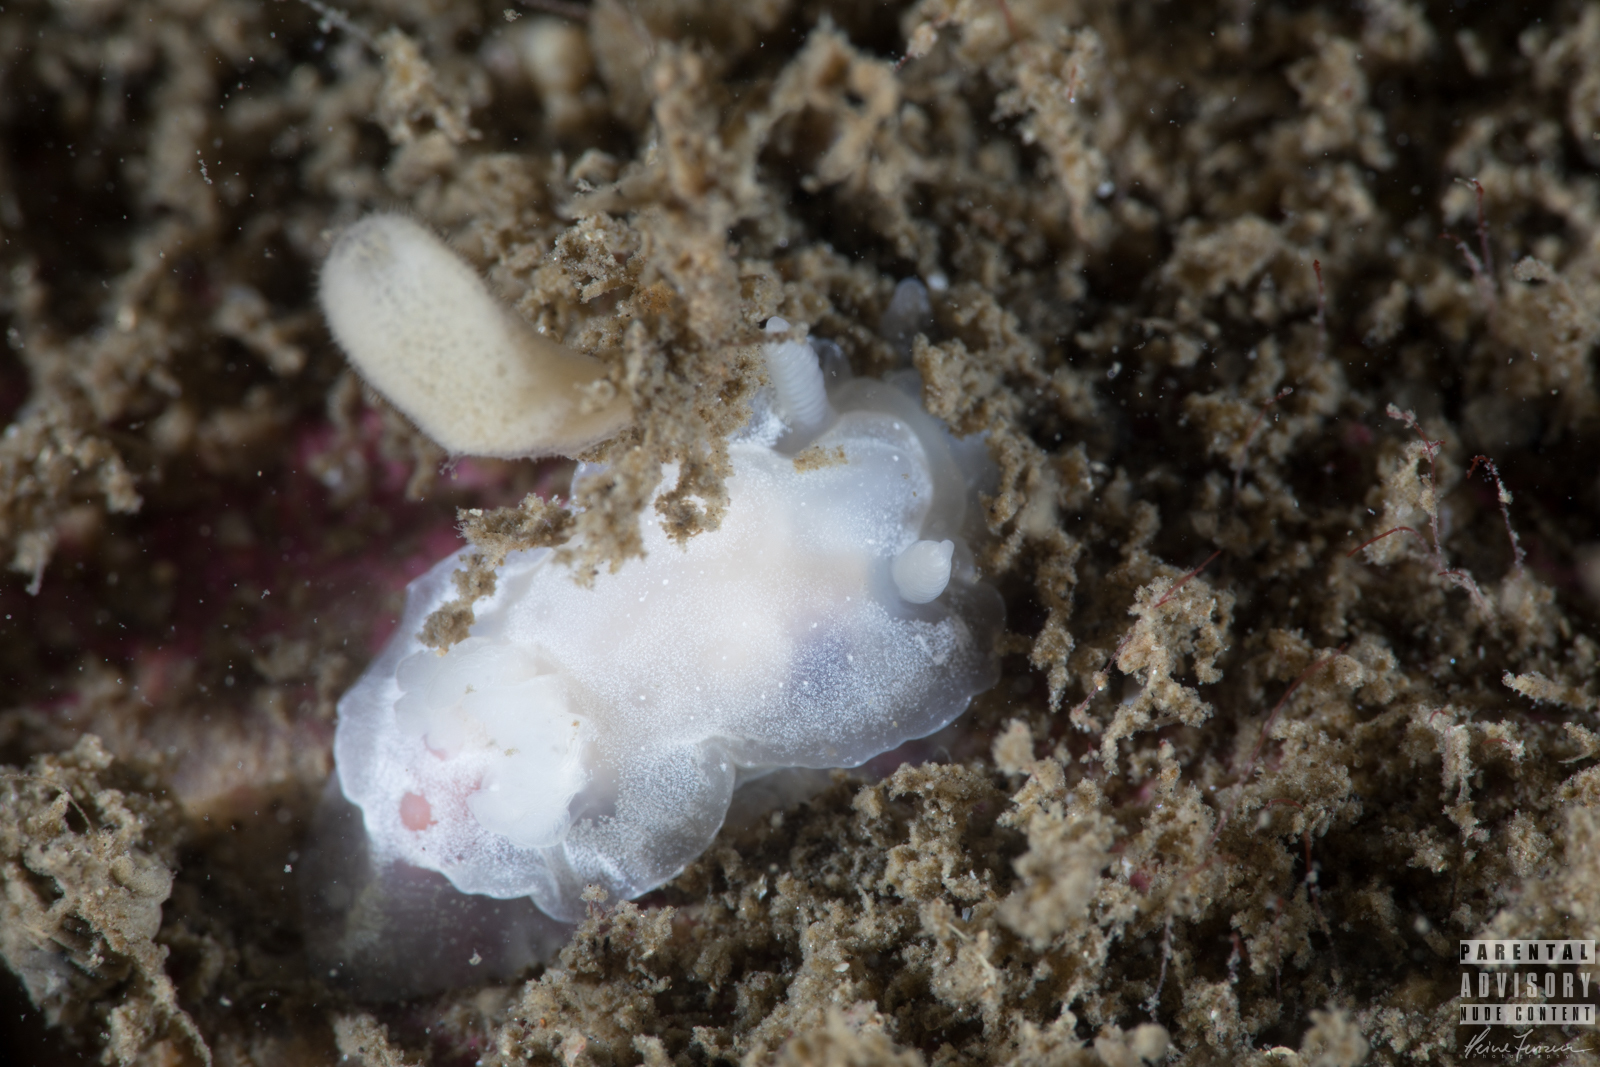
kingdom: Animalia
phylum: Mollusca
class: Gastropoda
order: Nudibranchia
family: Goniodorididae
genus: Okenia
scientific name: Okenia
